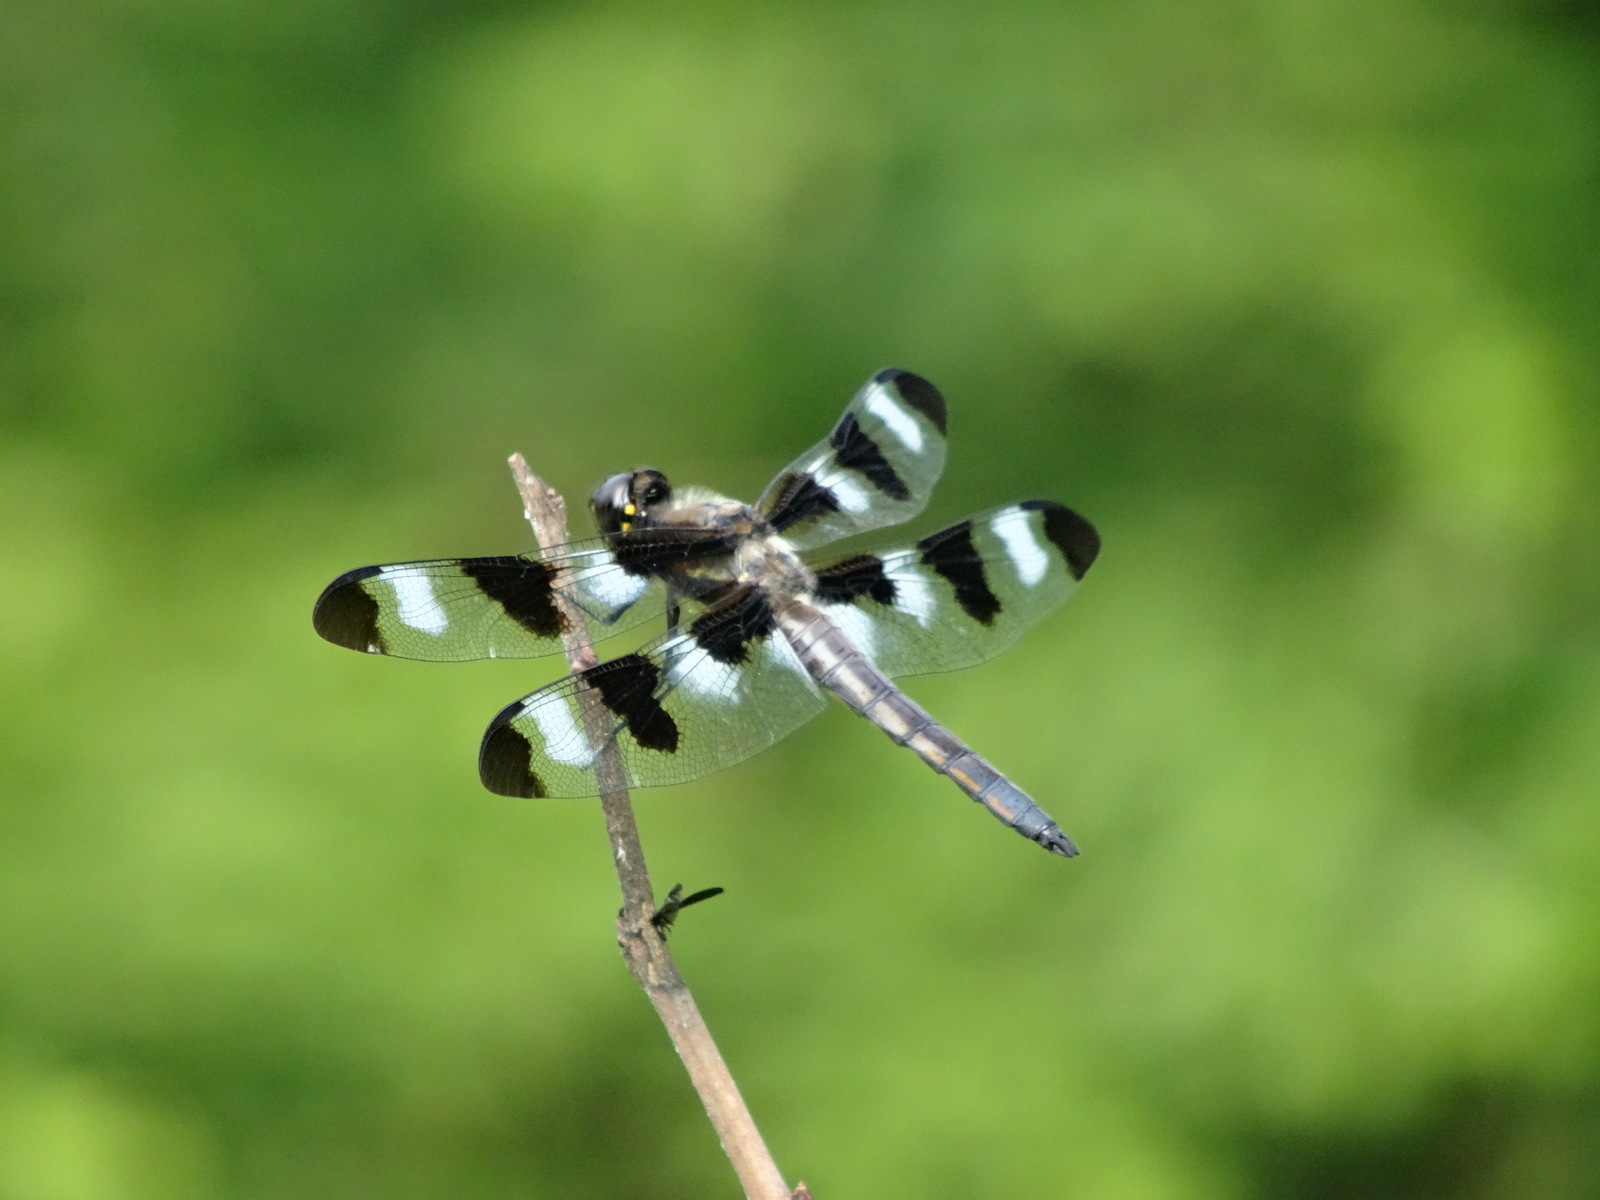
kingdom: Animalia
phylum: Arthropoda
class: Insecta
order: Odonata
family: Libellulidae
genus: Libellula
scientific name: Libellula pulchella
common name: Twelve-spotted skimmer
